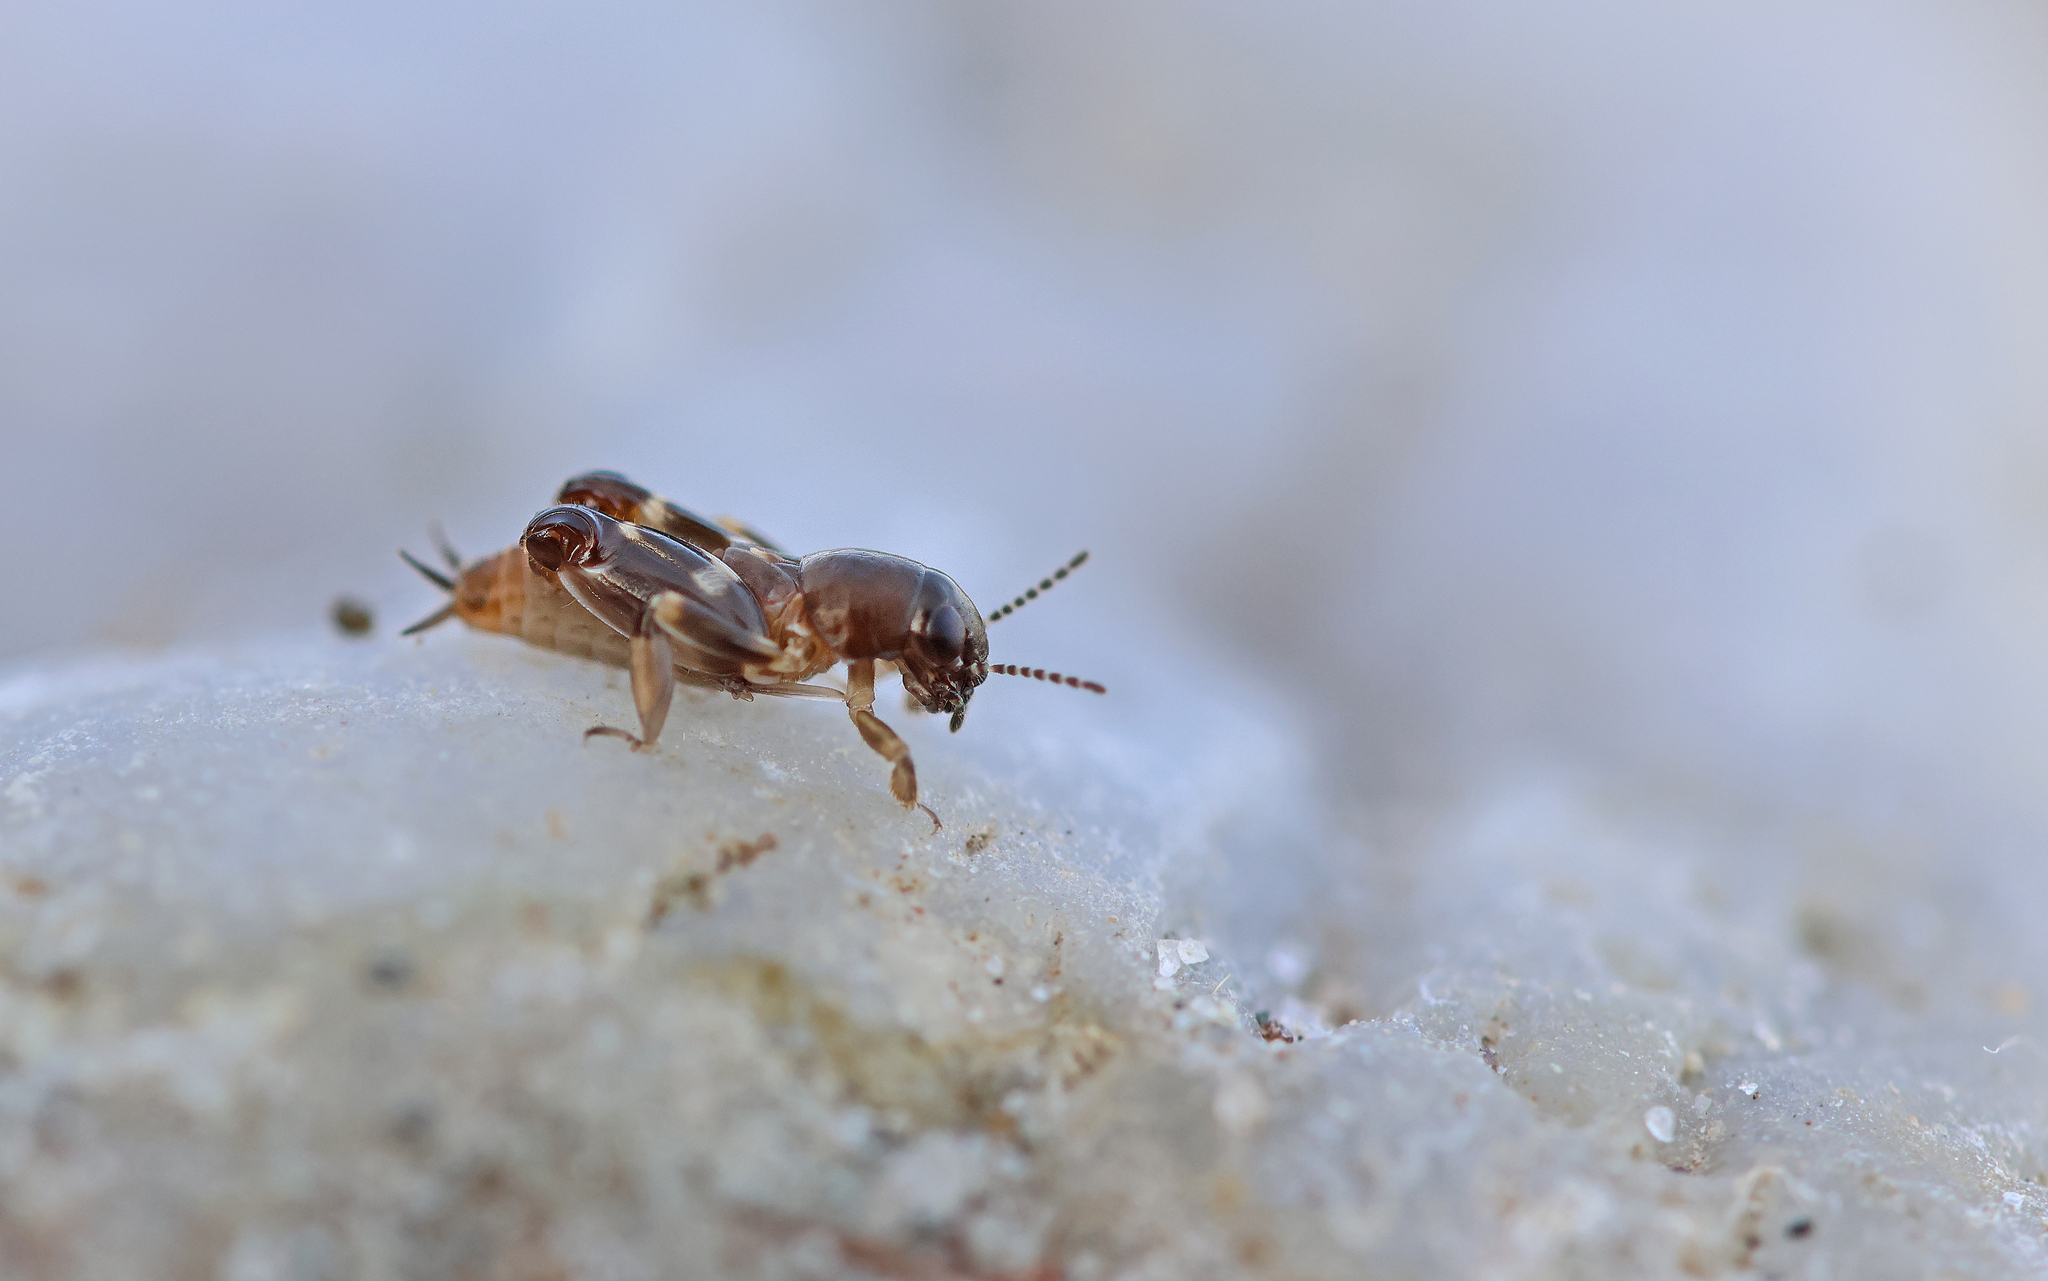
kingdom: Animalia
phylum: Arthropoda
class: Insecta
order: Orthoptera
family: Tridactylidae
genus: Xya
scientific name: Xya pfaendleri
